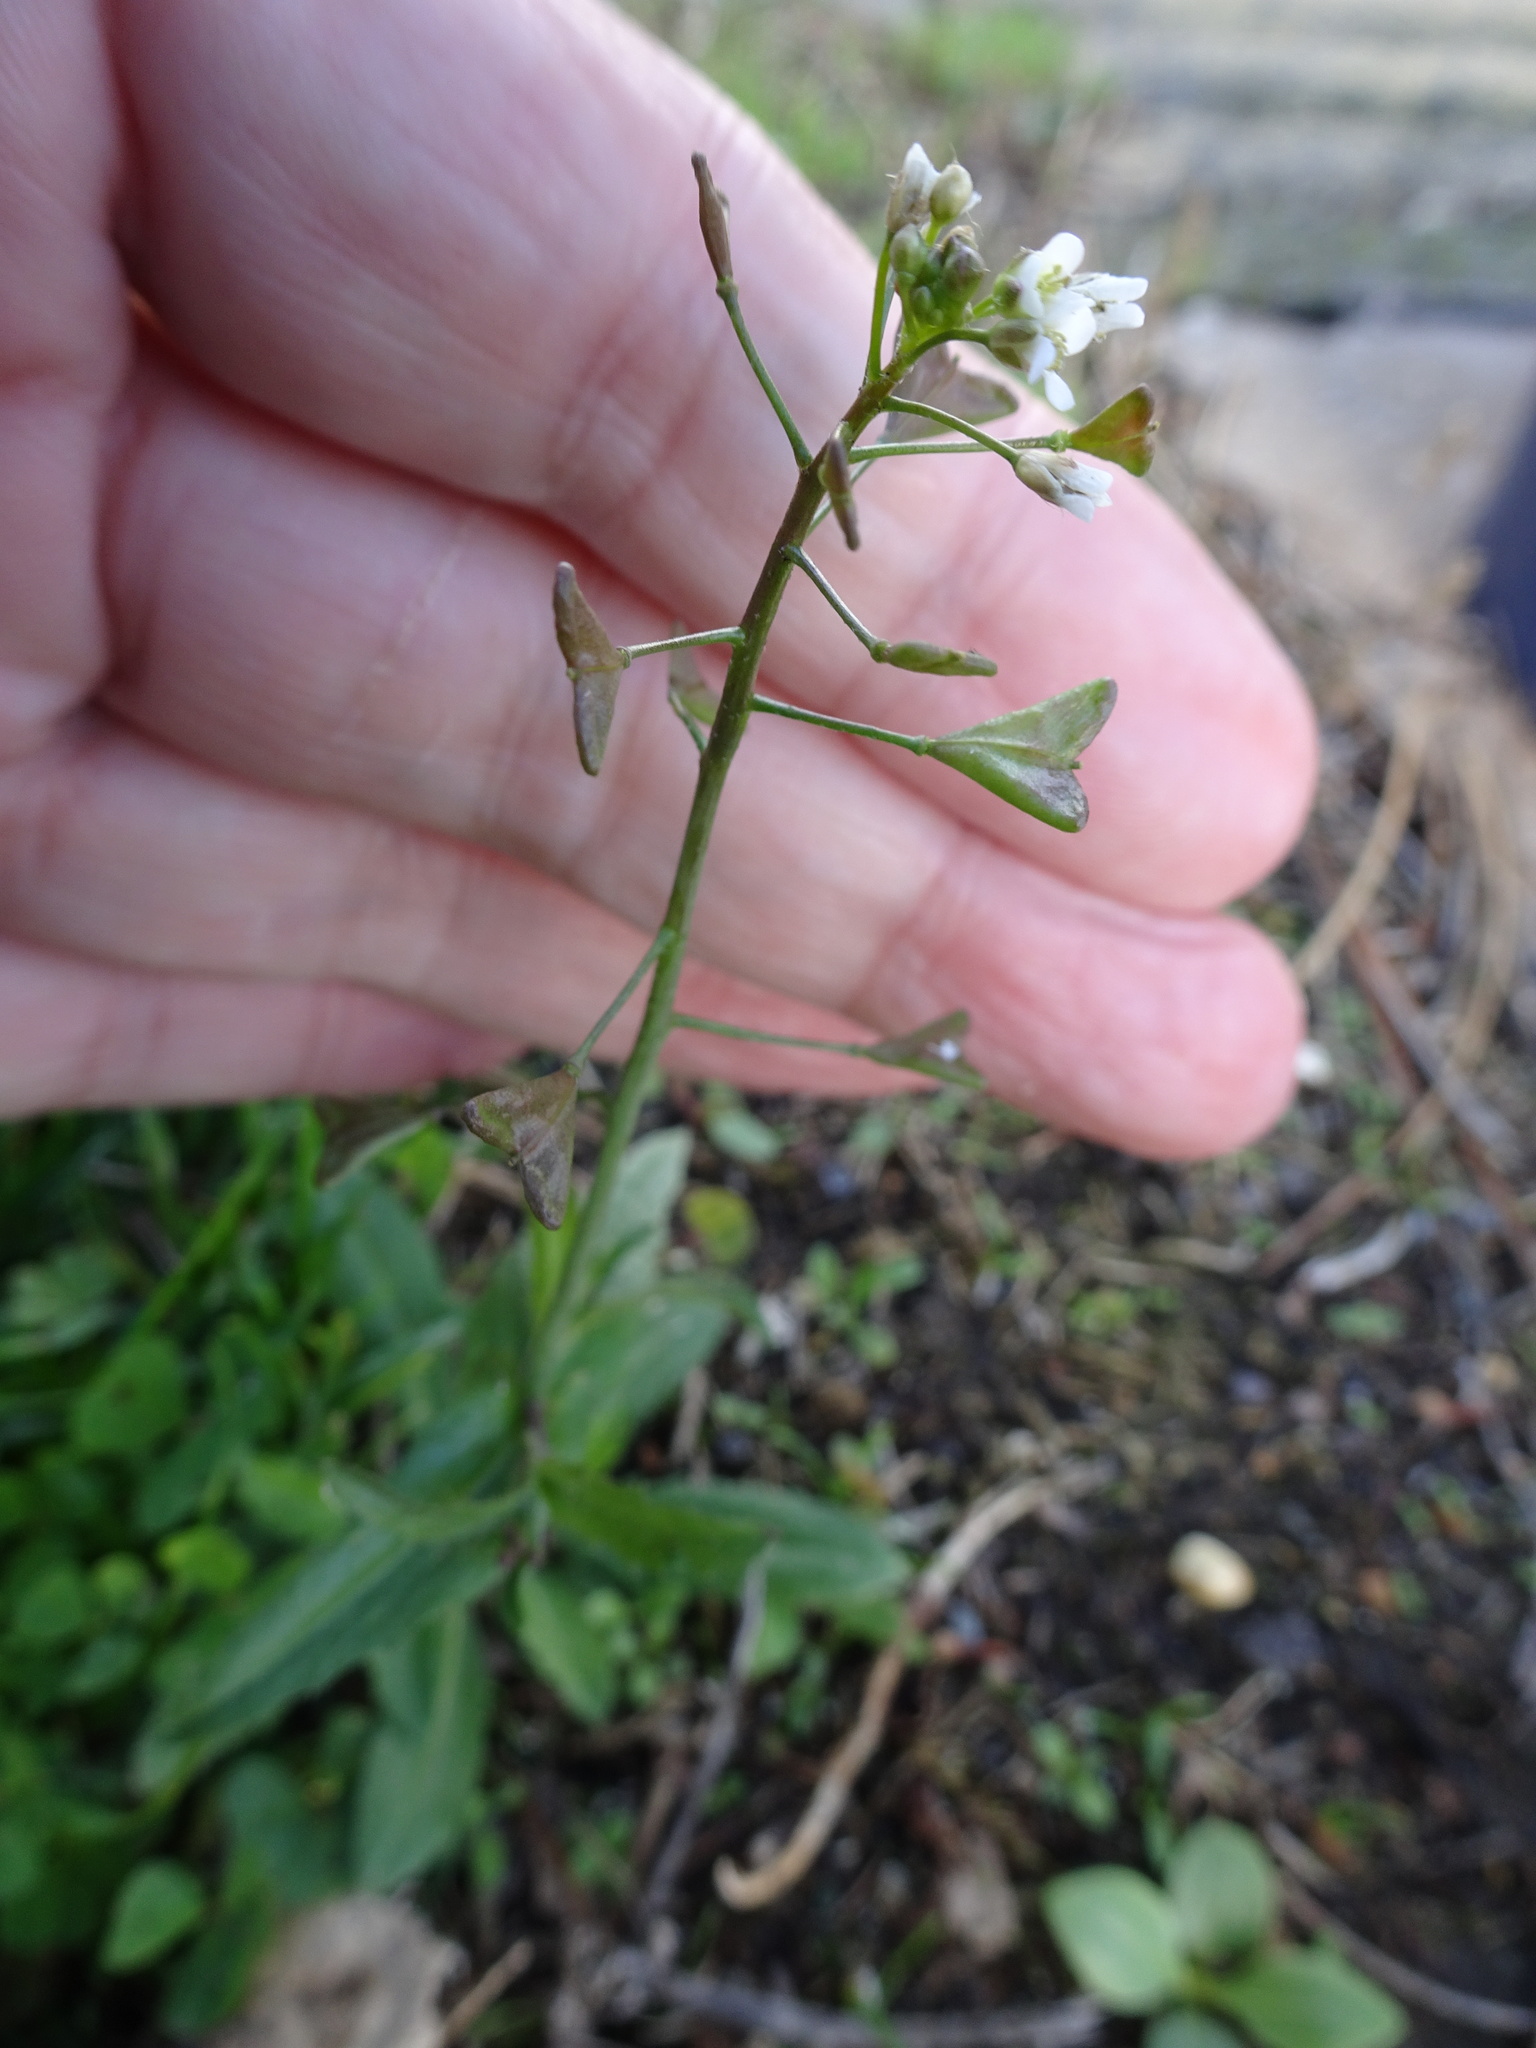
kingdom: Plantae
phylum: Tracheophyta
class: Magnoliopsida
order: Brassicales
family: Brassicaceae
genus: Capsella
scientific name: Capsella bursa-pastoris
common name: Shepherd's purse
